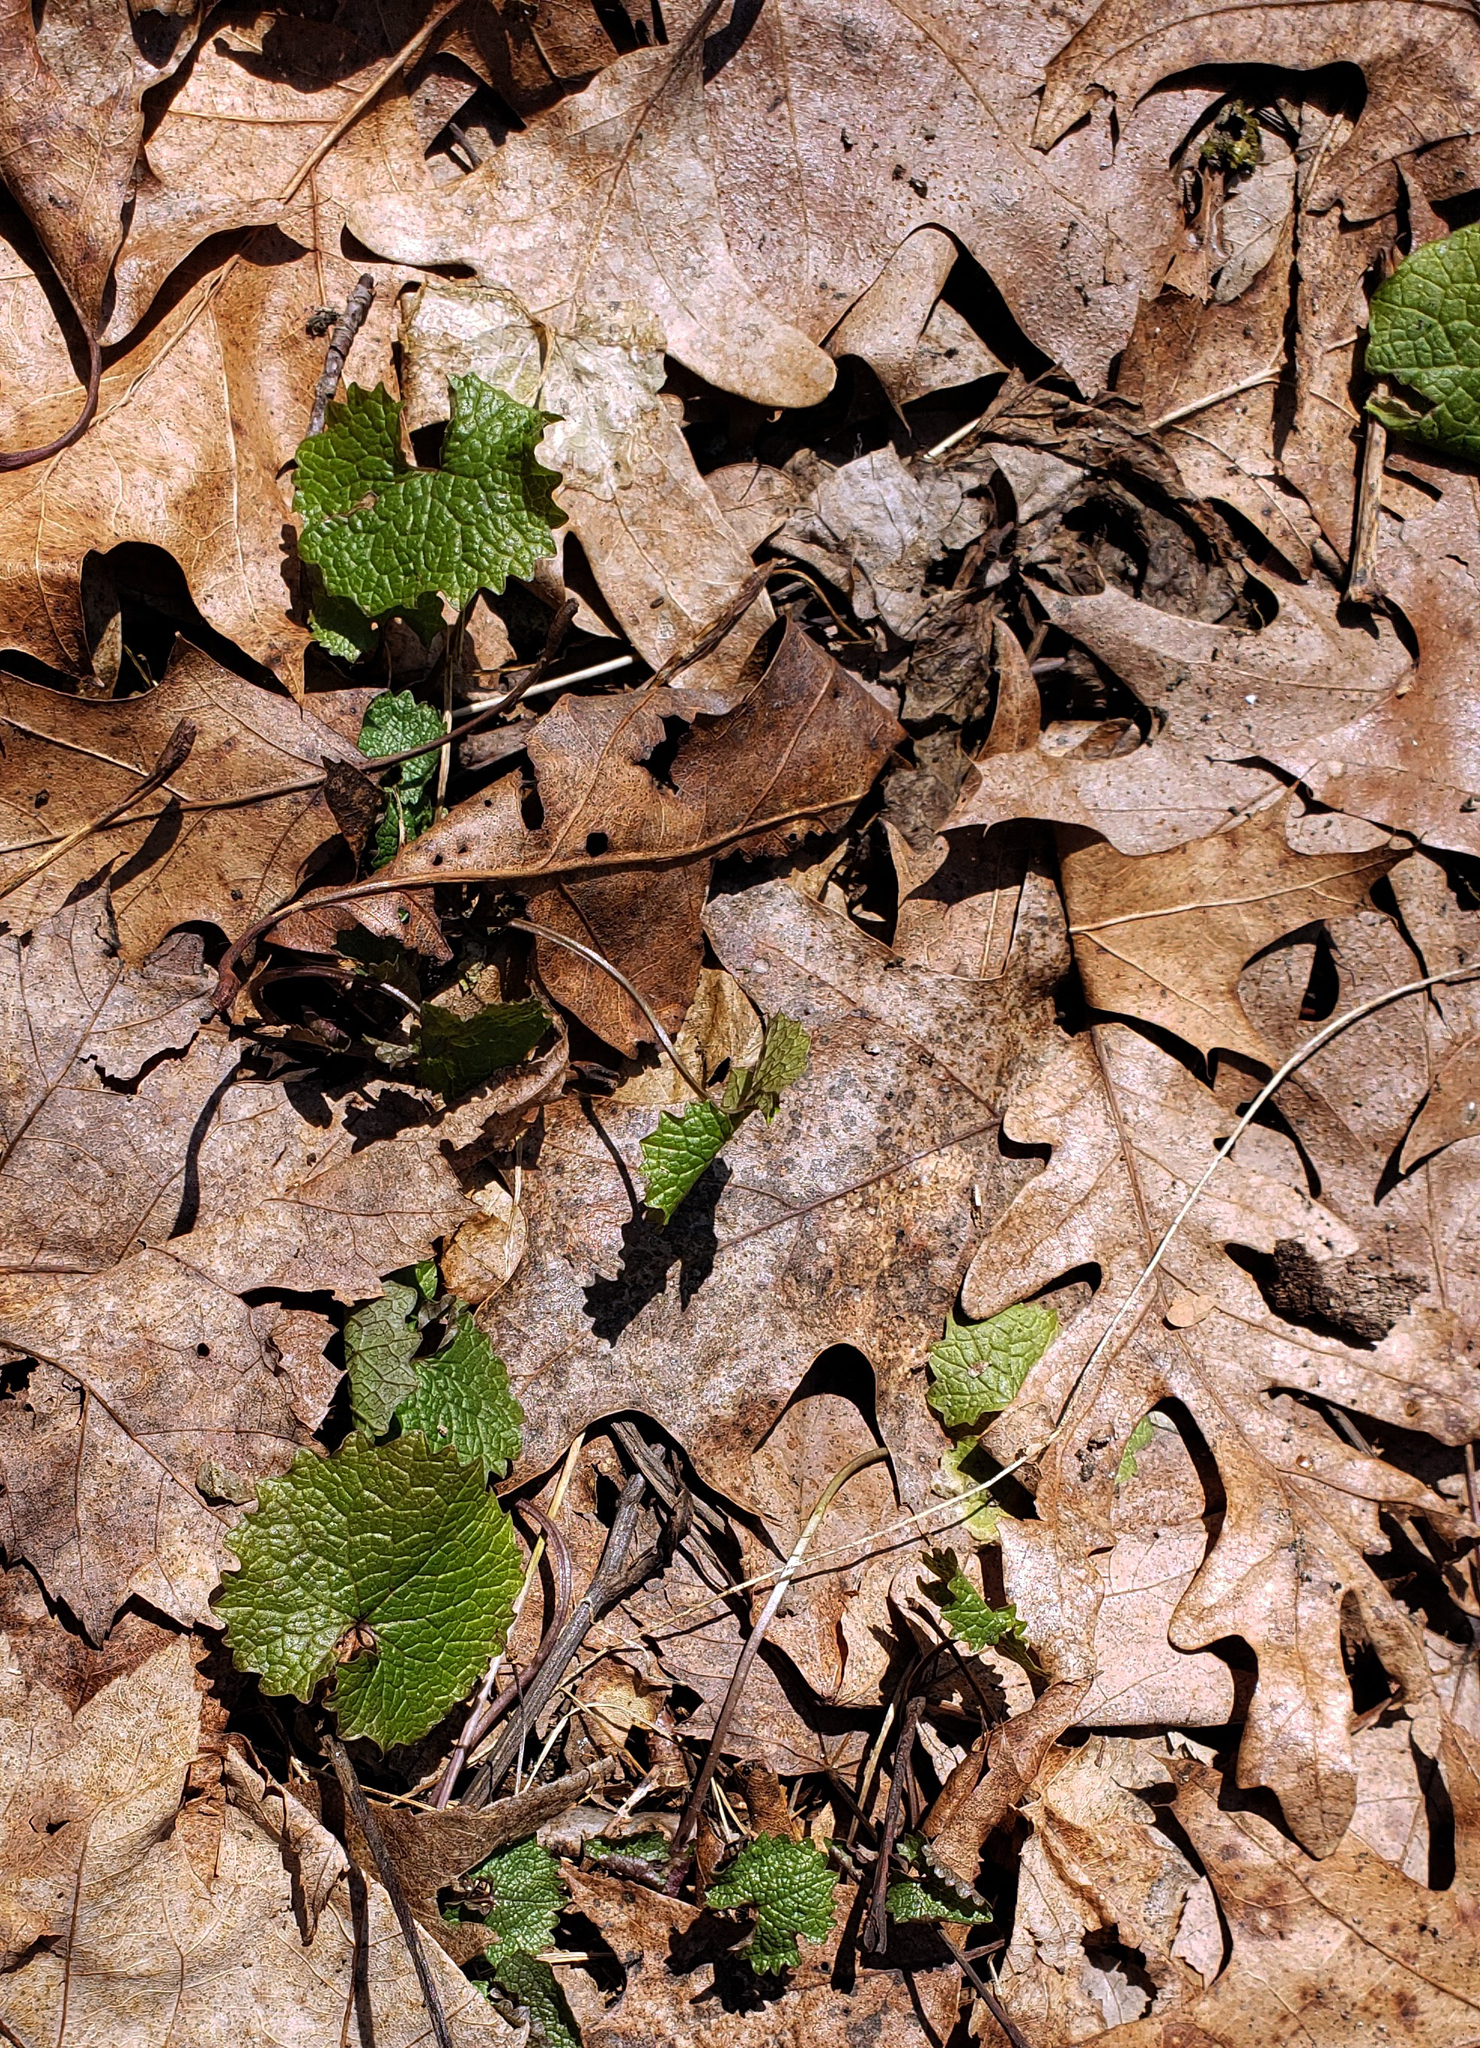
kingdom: Plantae
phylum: Tracheophyta
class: Magnoliopsida
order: Brassicales
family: Brassicaceae
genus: Alliaria
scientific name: Alliaria petiolata
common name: Garlic mustard
